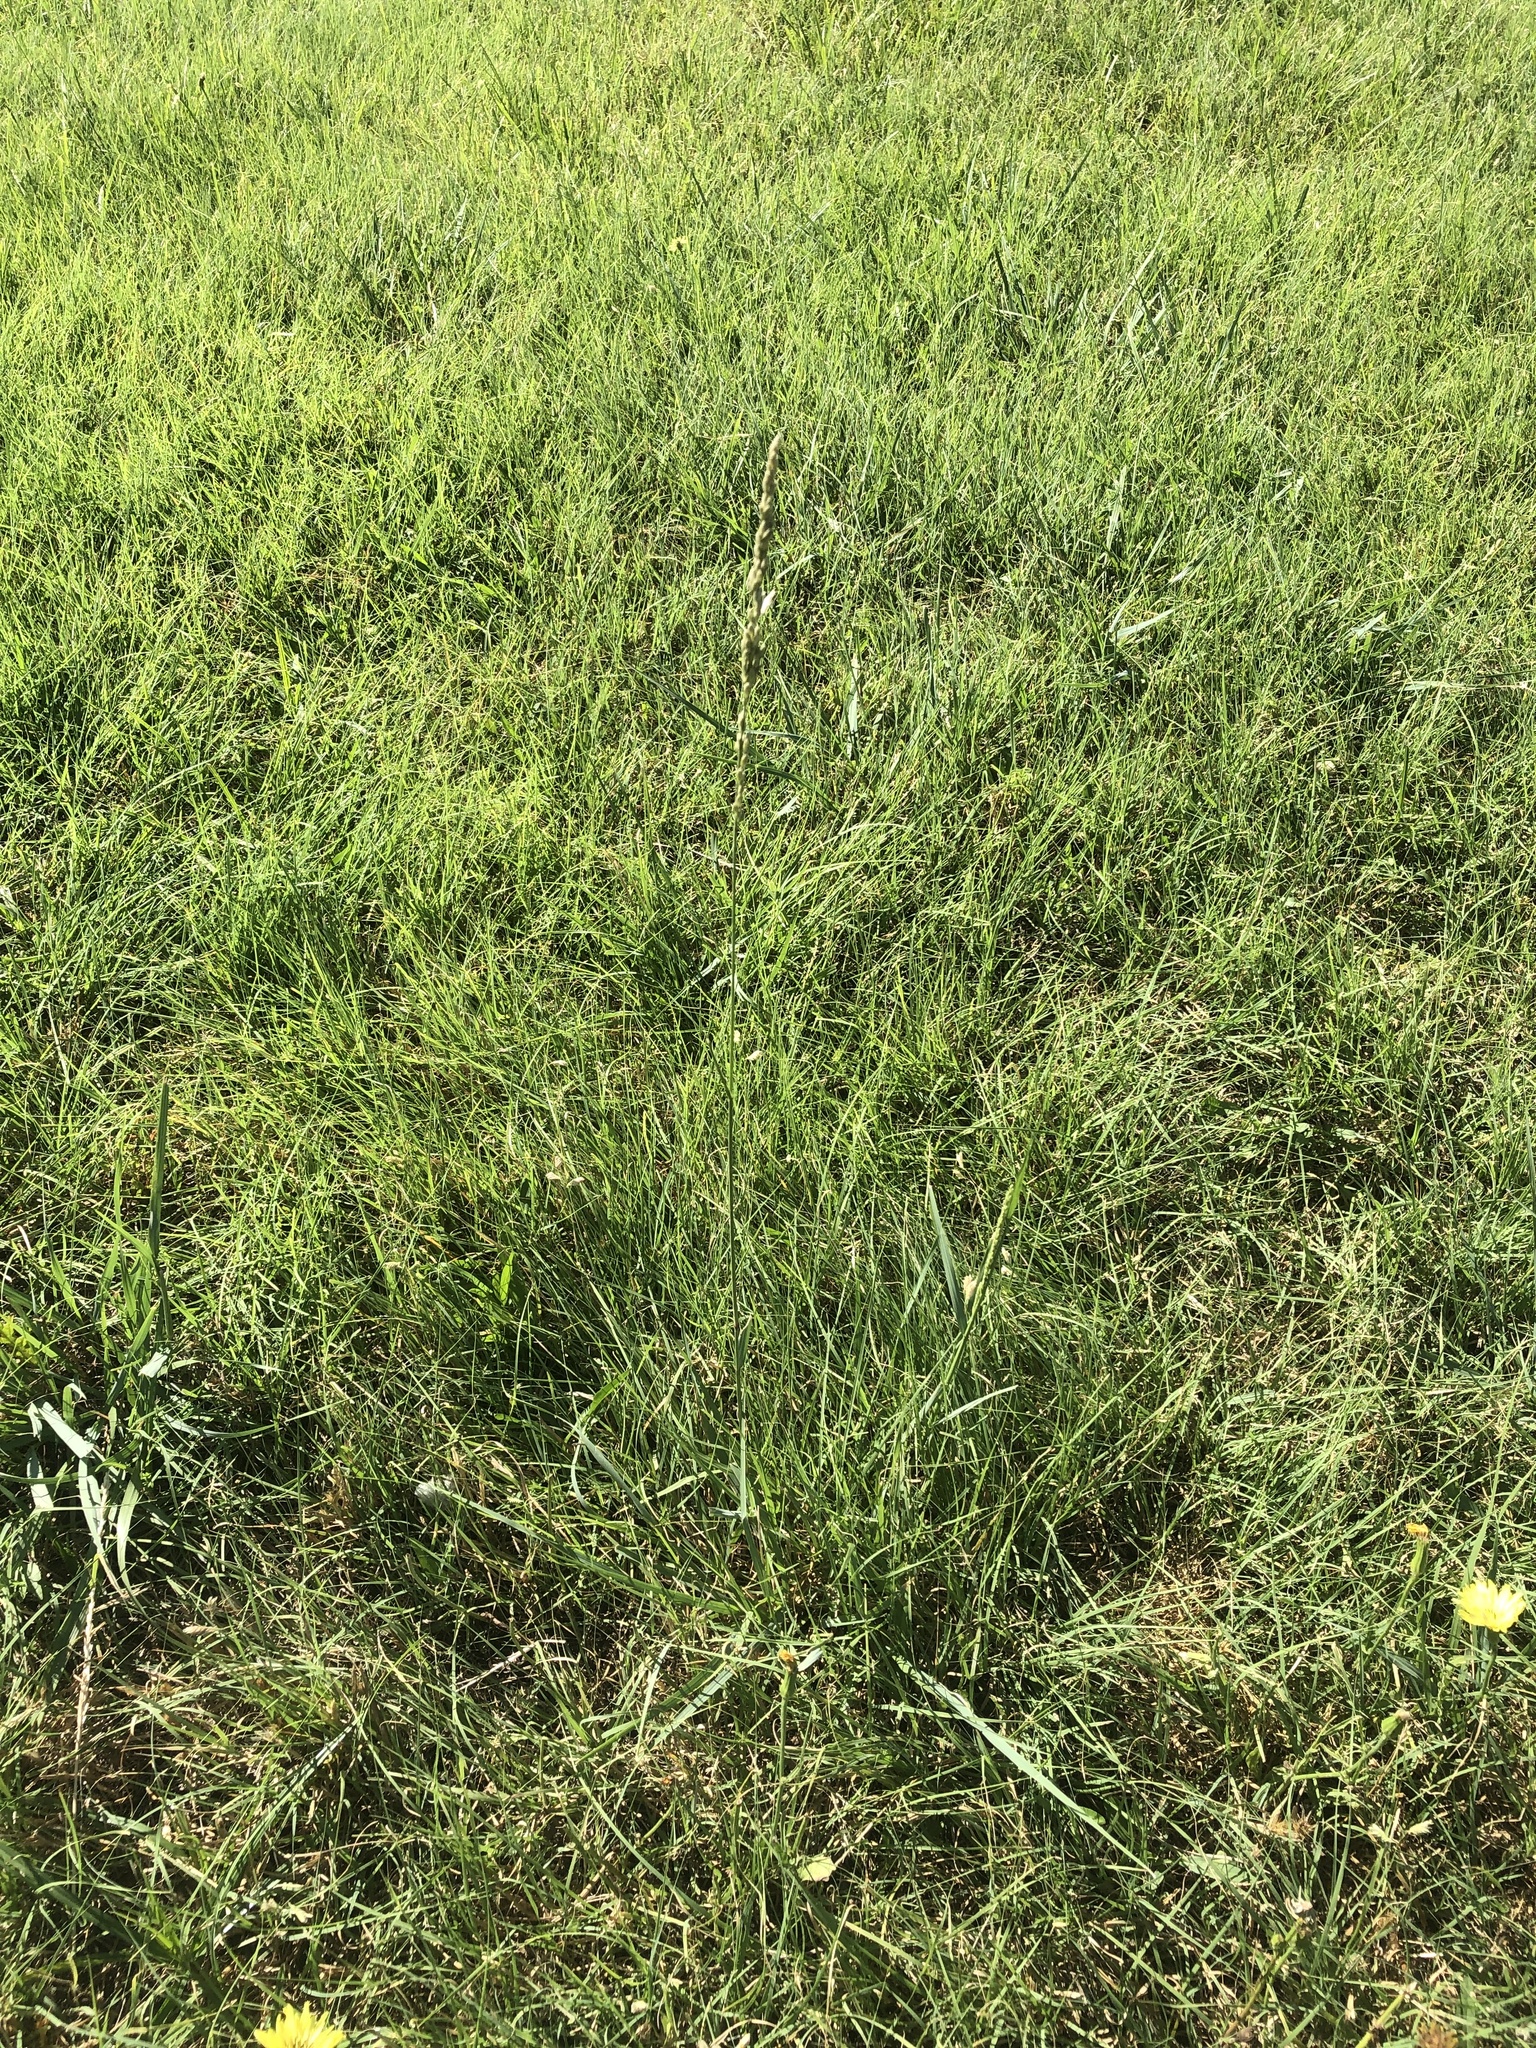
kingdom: Plantae
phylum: Tracheophyta
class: Liliopsida
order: Poales
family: Poaceae
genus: Tridens
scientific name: Tridens albescens
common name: White tridens
